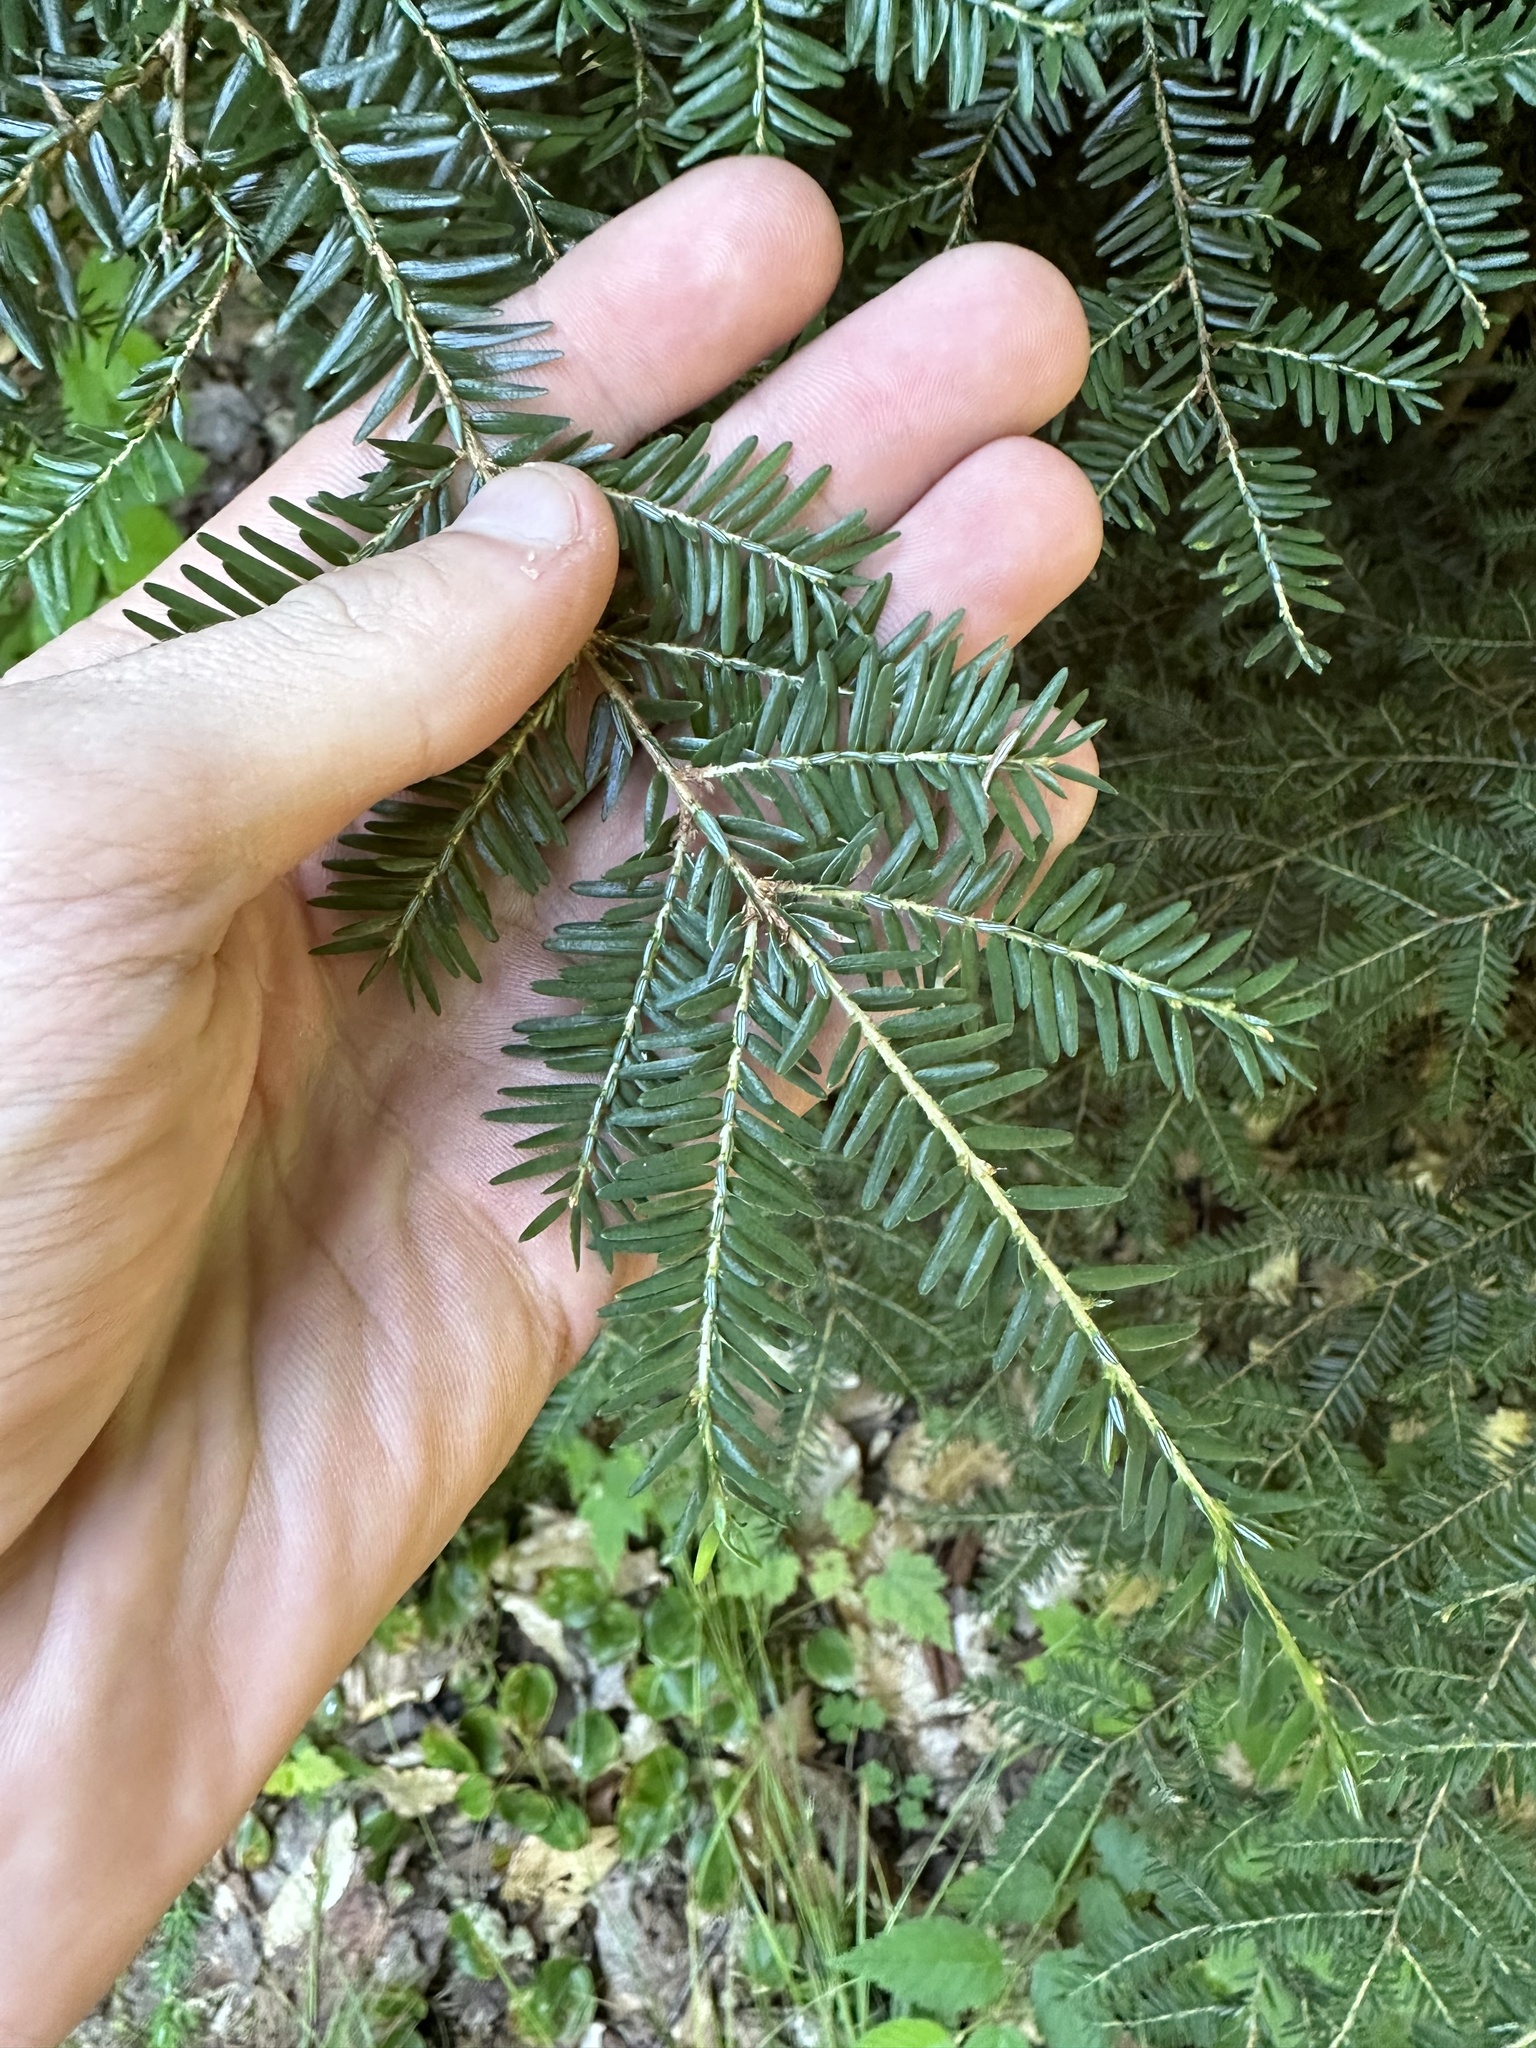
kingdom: Plantae
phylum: Tracheophyta
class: Pinopsida
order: Pinales
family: Pinaceae
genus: Tsuga
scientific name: Tsuga canadensis
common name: Eastern hemlock
